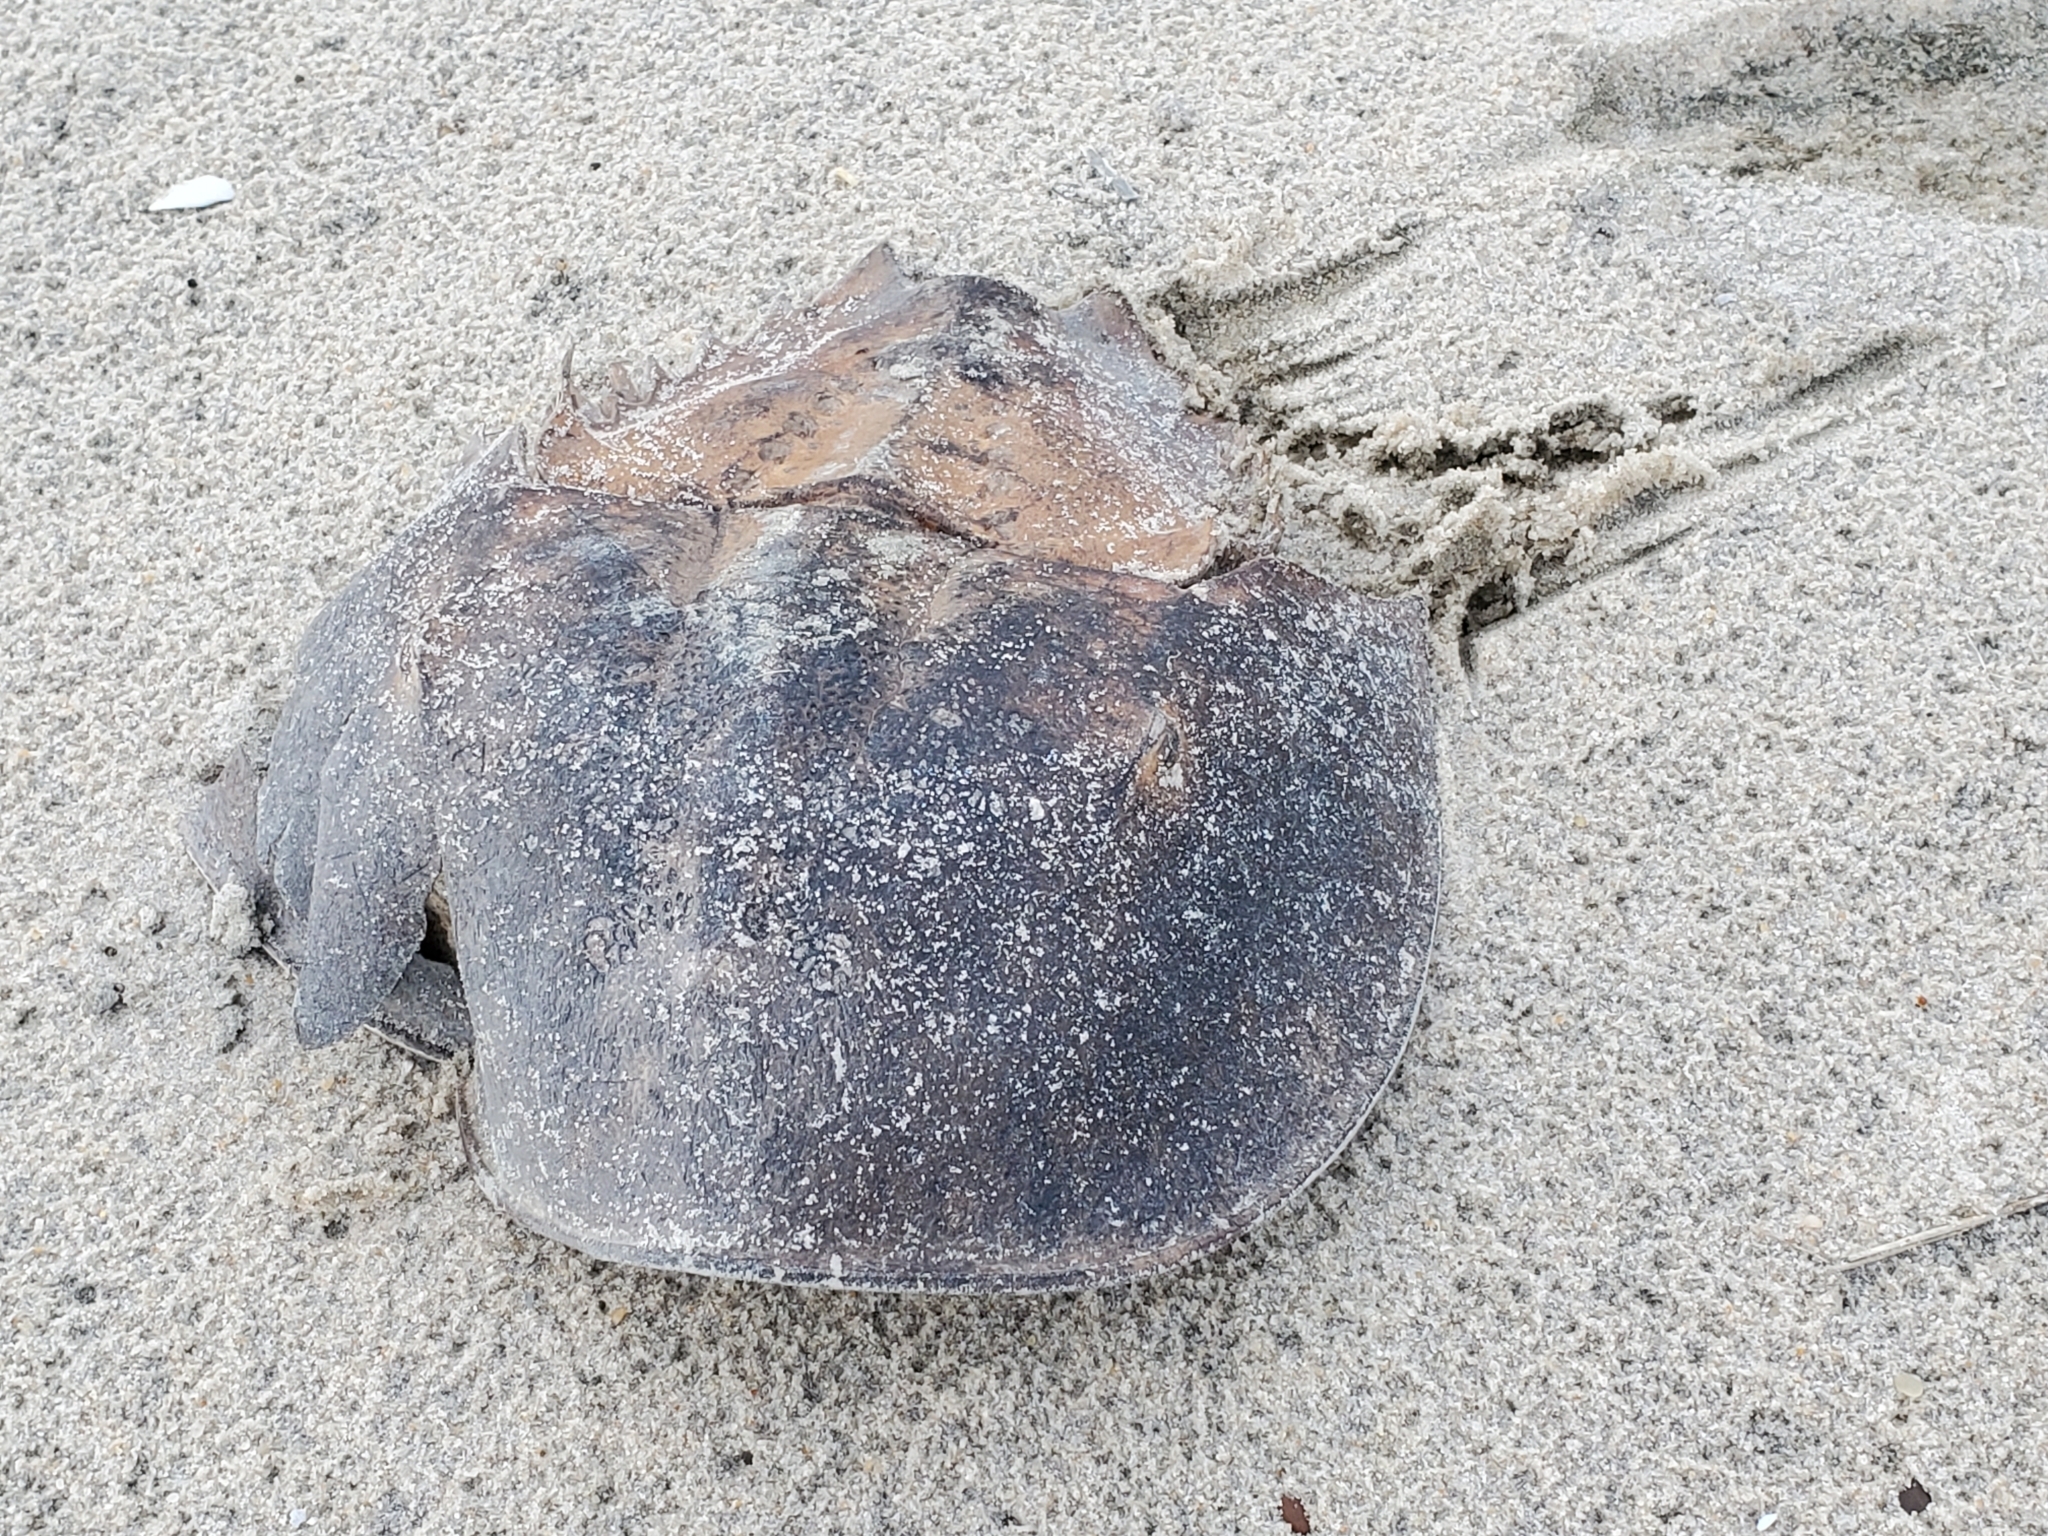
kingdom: Animalia
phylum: Arthropoda
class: Merostomata
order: Xiphosurida
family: Limulidae
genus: Limulus
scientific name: Limulus polyphemus
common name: Horseshoe crab
